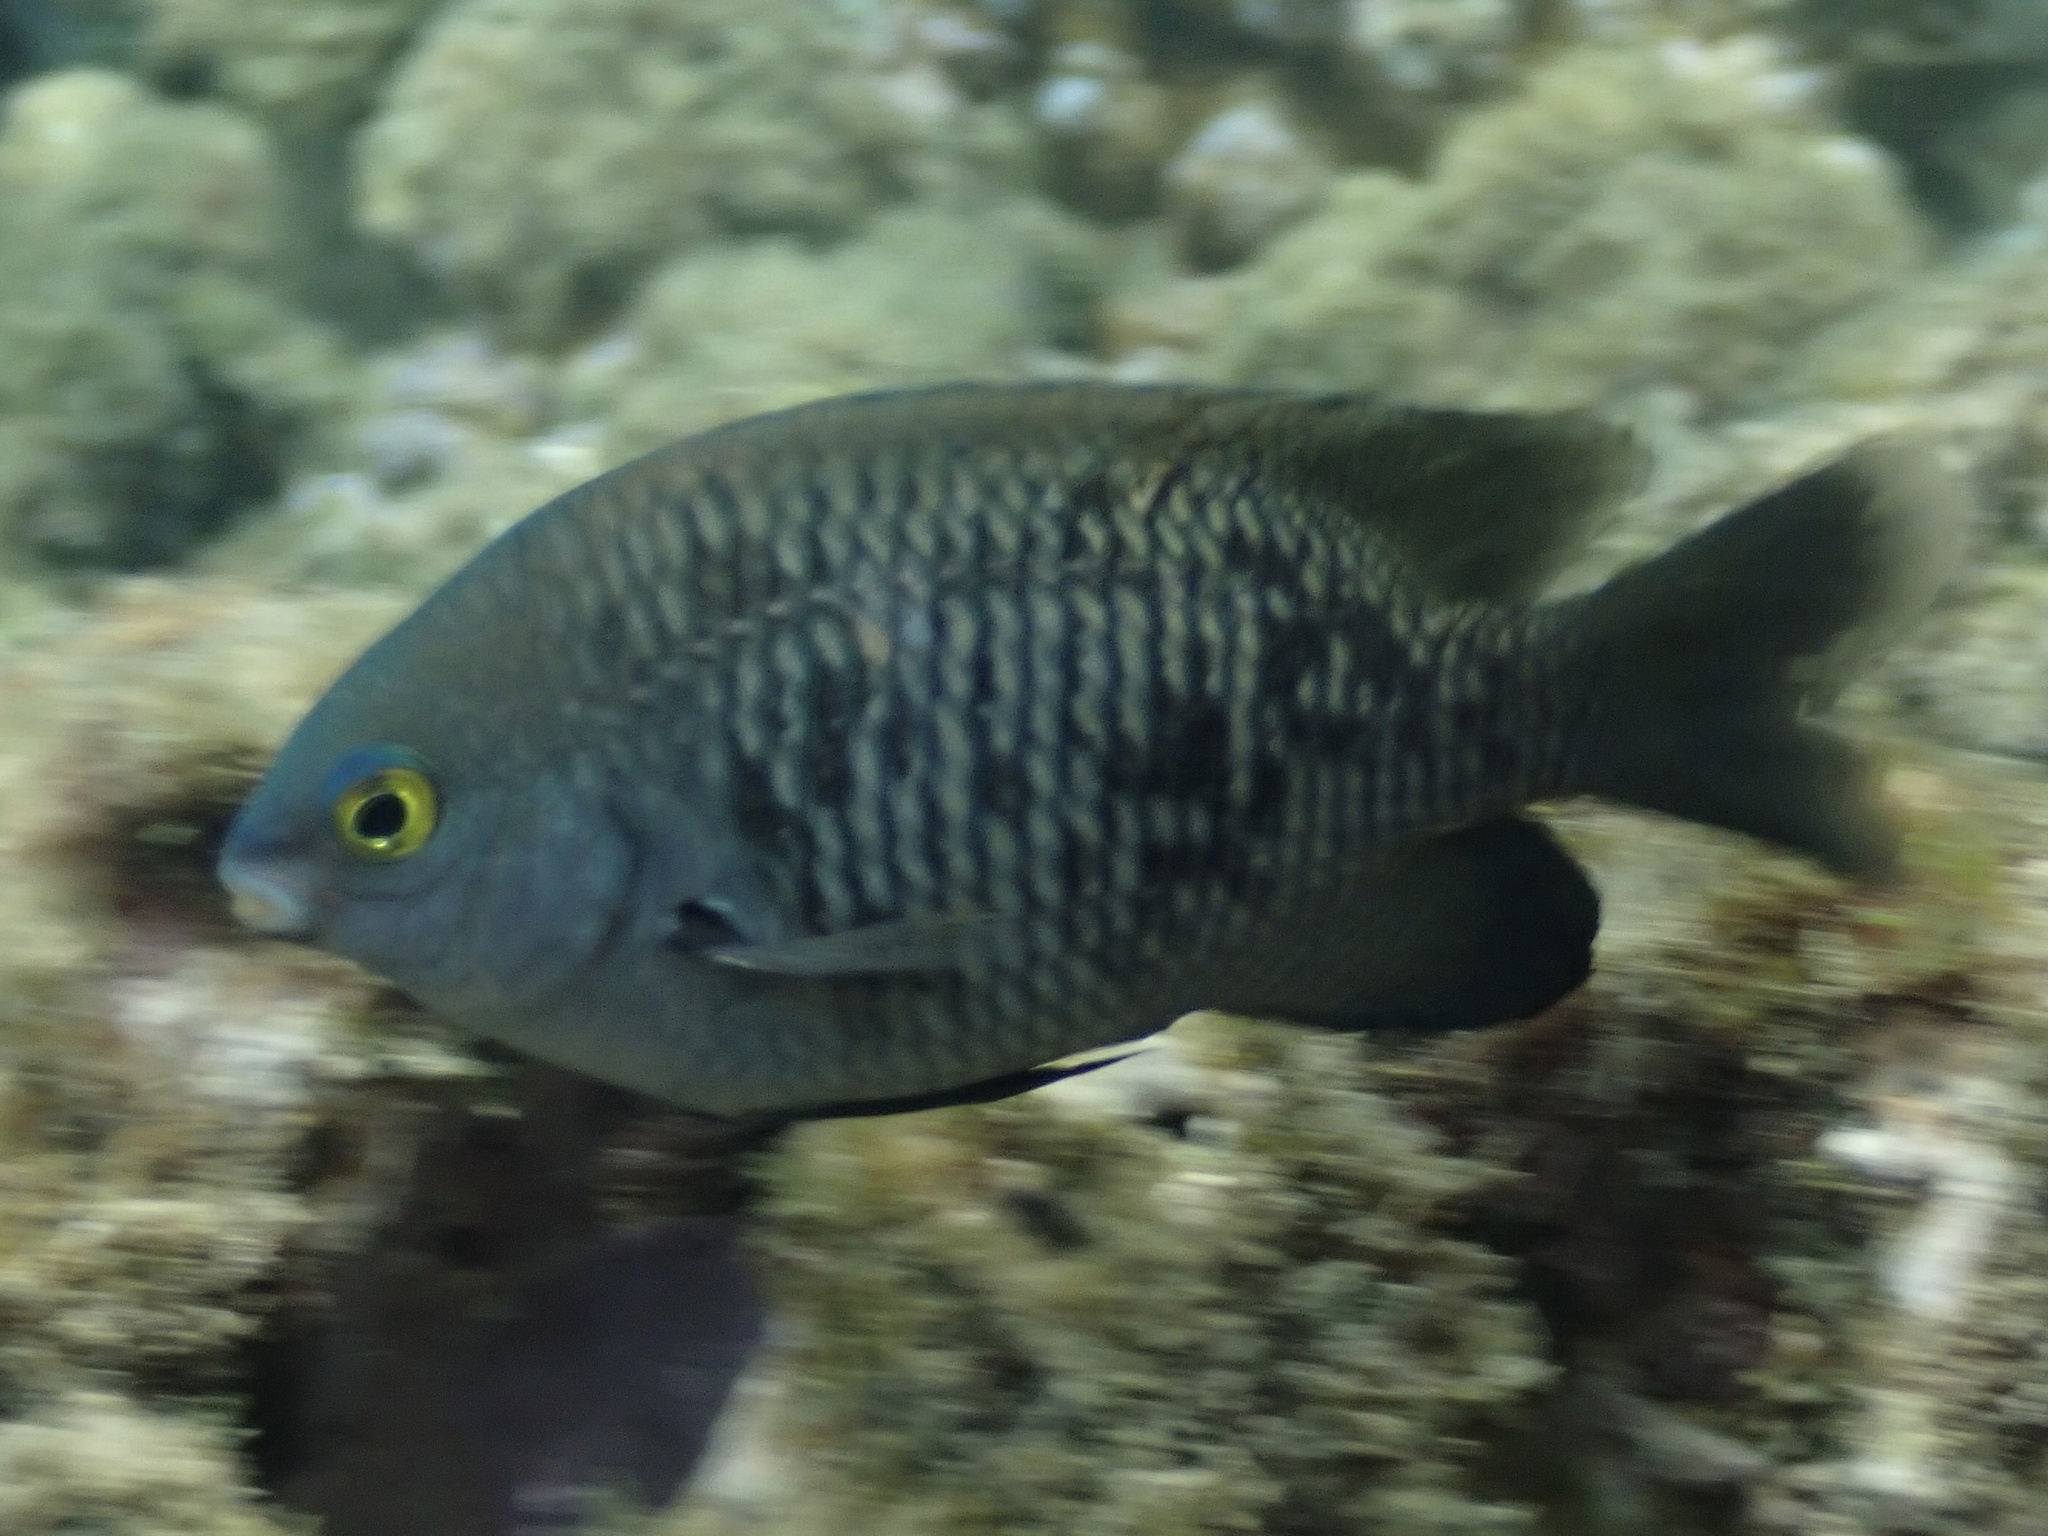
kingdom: Animalia
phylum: Chordata
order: Perciformes
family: Pomacentridae
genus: Stegastes
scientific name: Stegastes fasciolatus
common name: Pacific gregory
